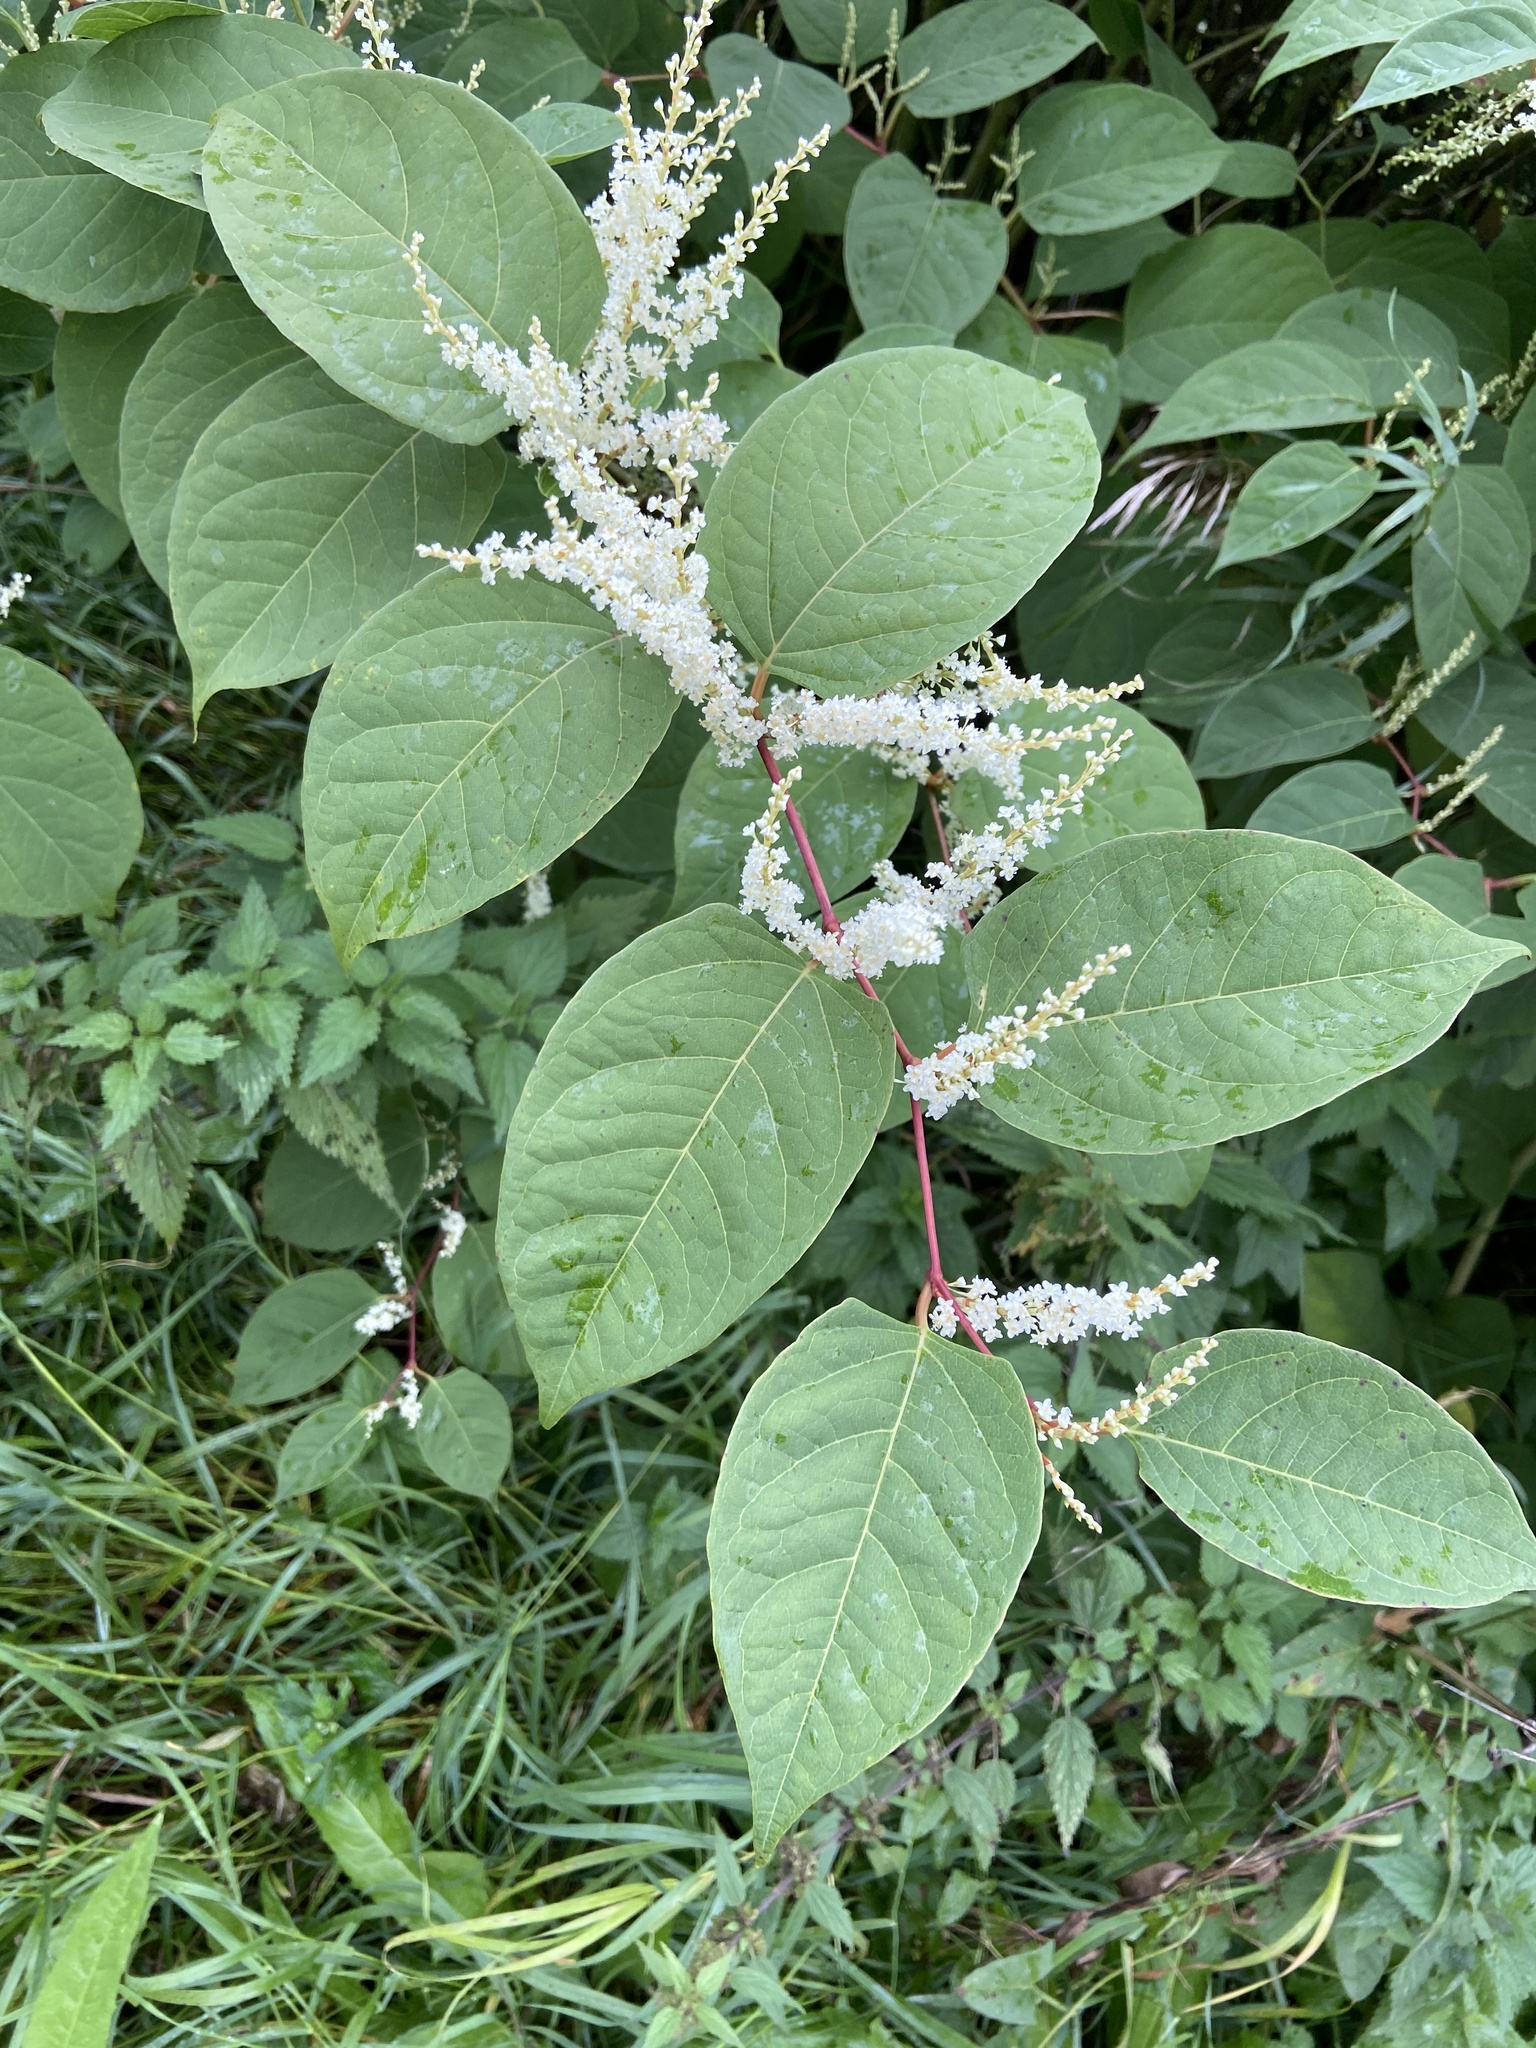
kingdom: Plantae
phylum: Tracheophyta
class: Magnoliopsida
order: Caryophyllales
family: Polygonaceae
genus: Reynoutria
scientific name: Reynoutria japonica
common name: Japanese knotweed
